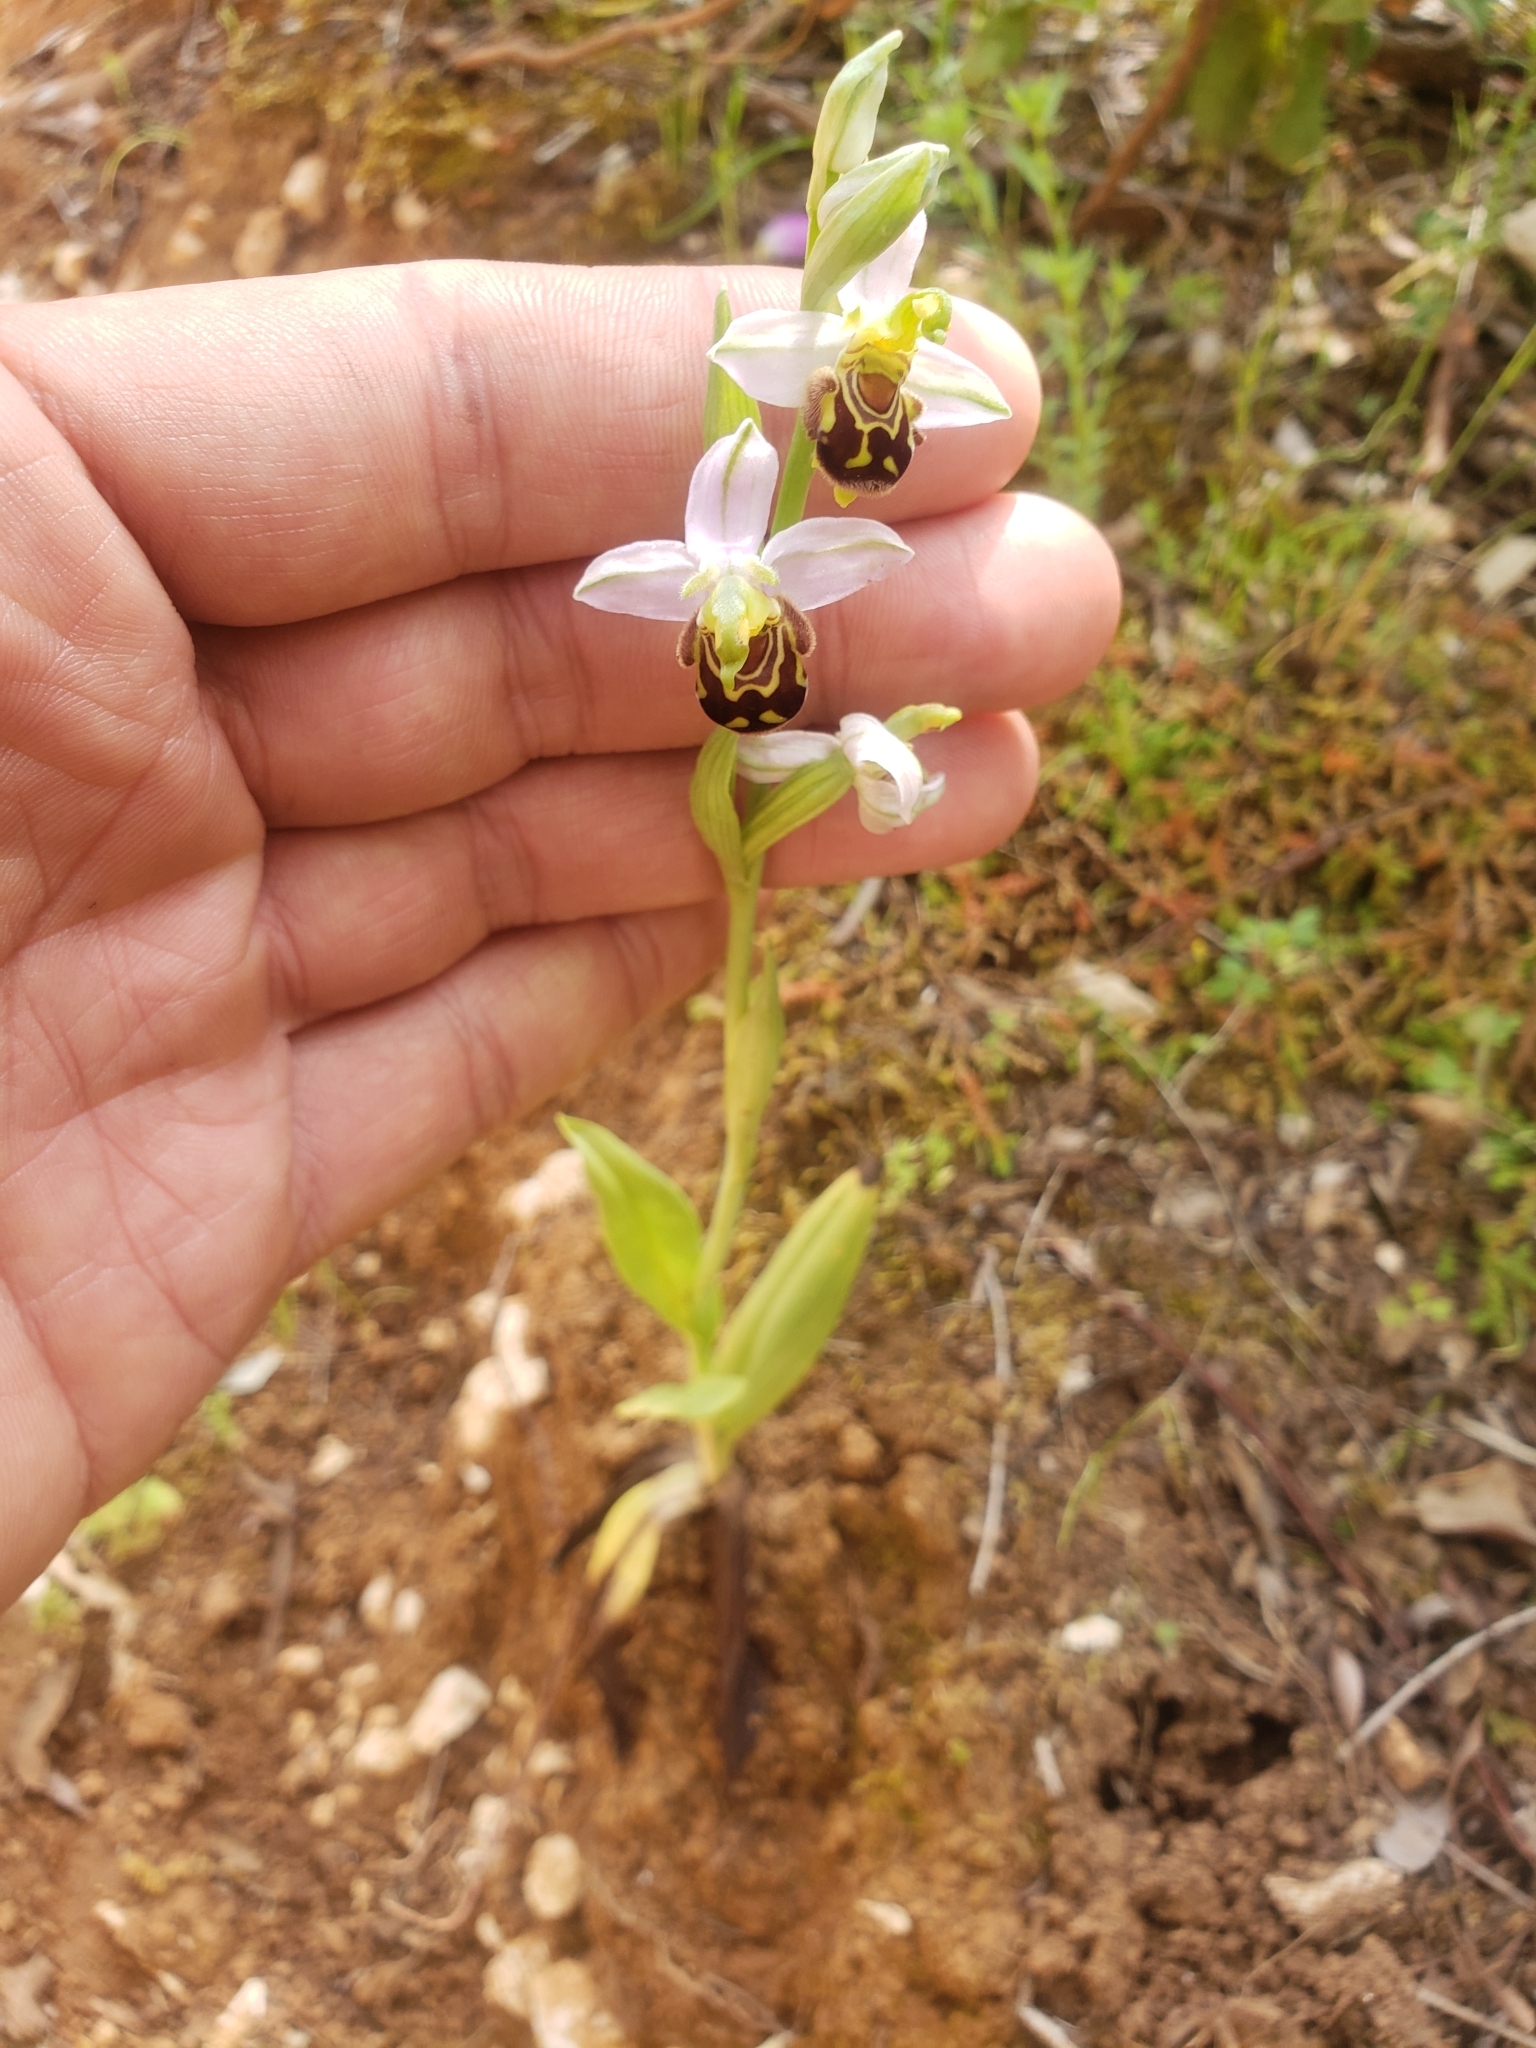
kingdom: Plantae
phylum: Tracheophyta
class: Liliopsida
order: Asparagales
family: Orchidaceae
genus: Ophrys
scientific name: Ophrys apifera
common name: Bee orchid
